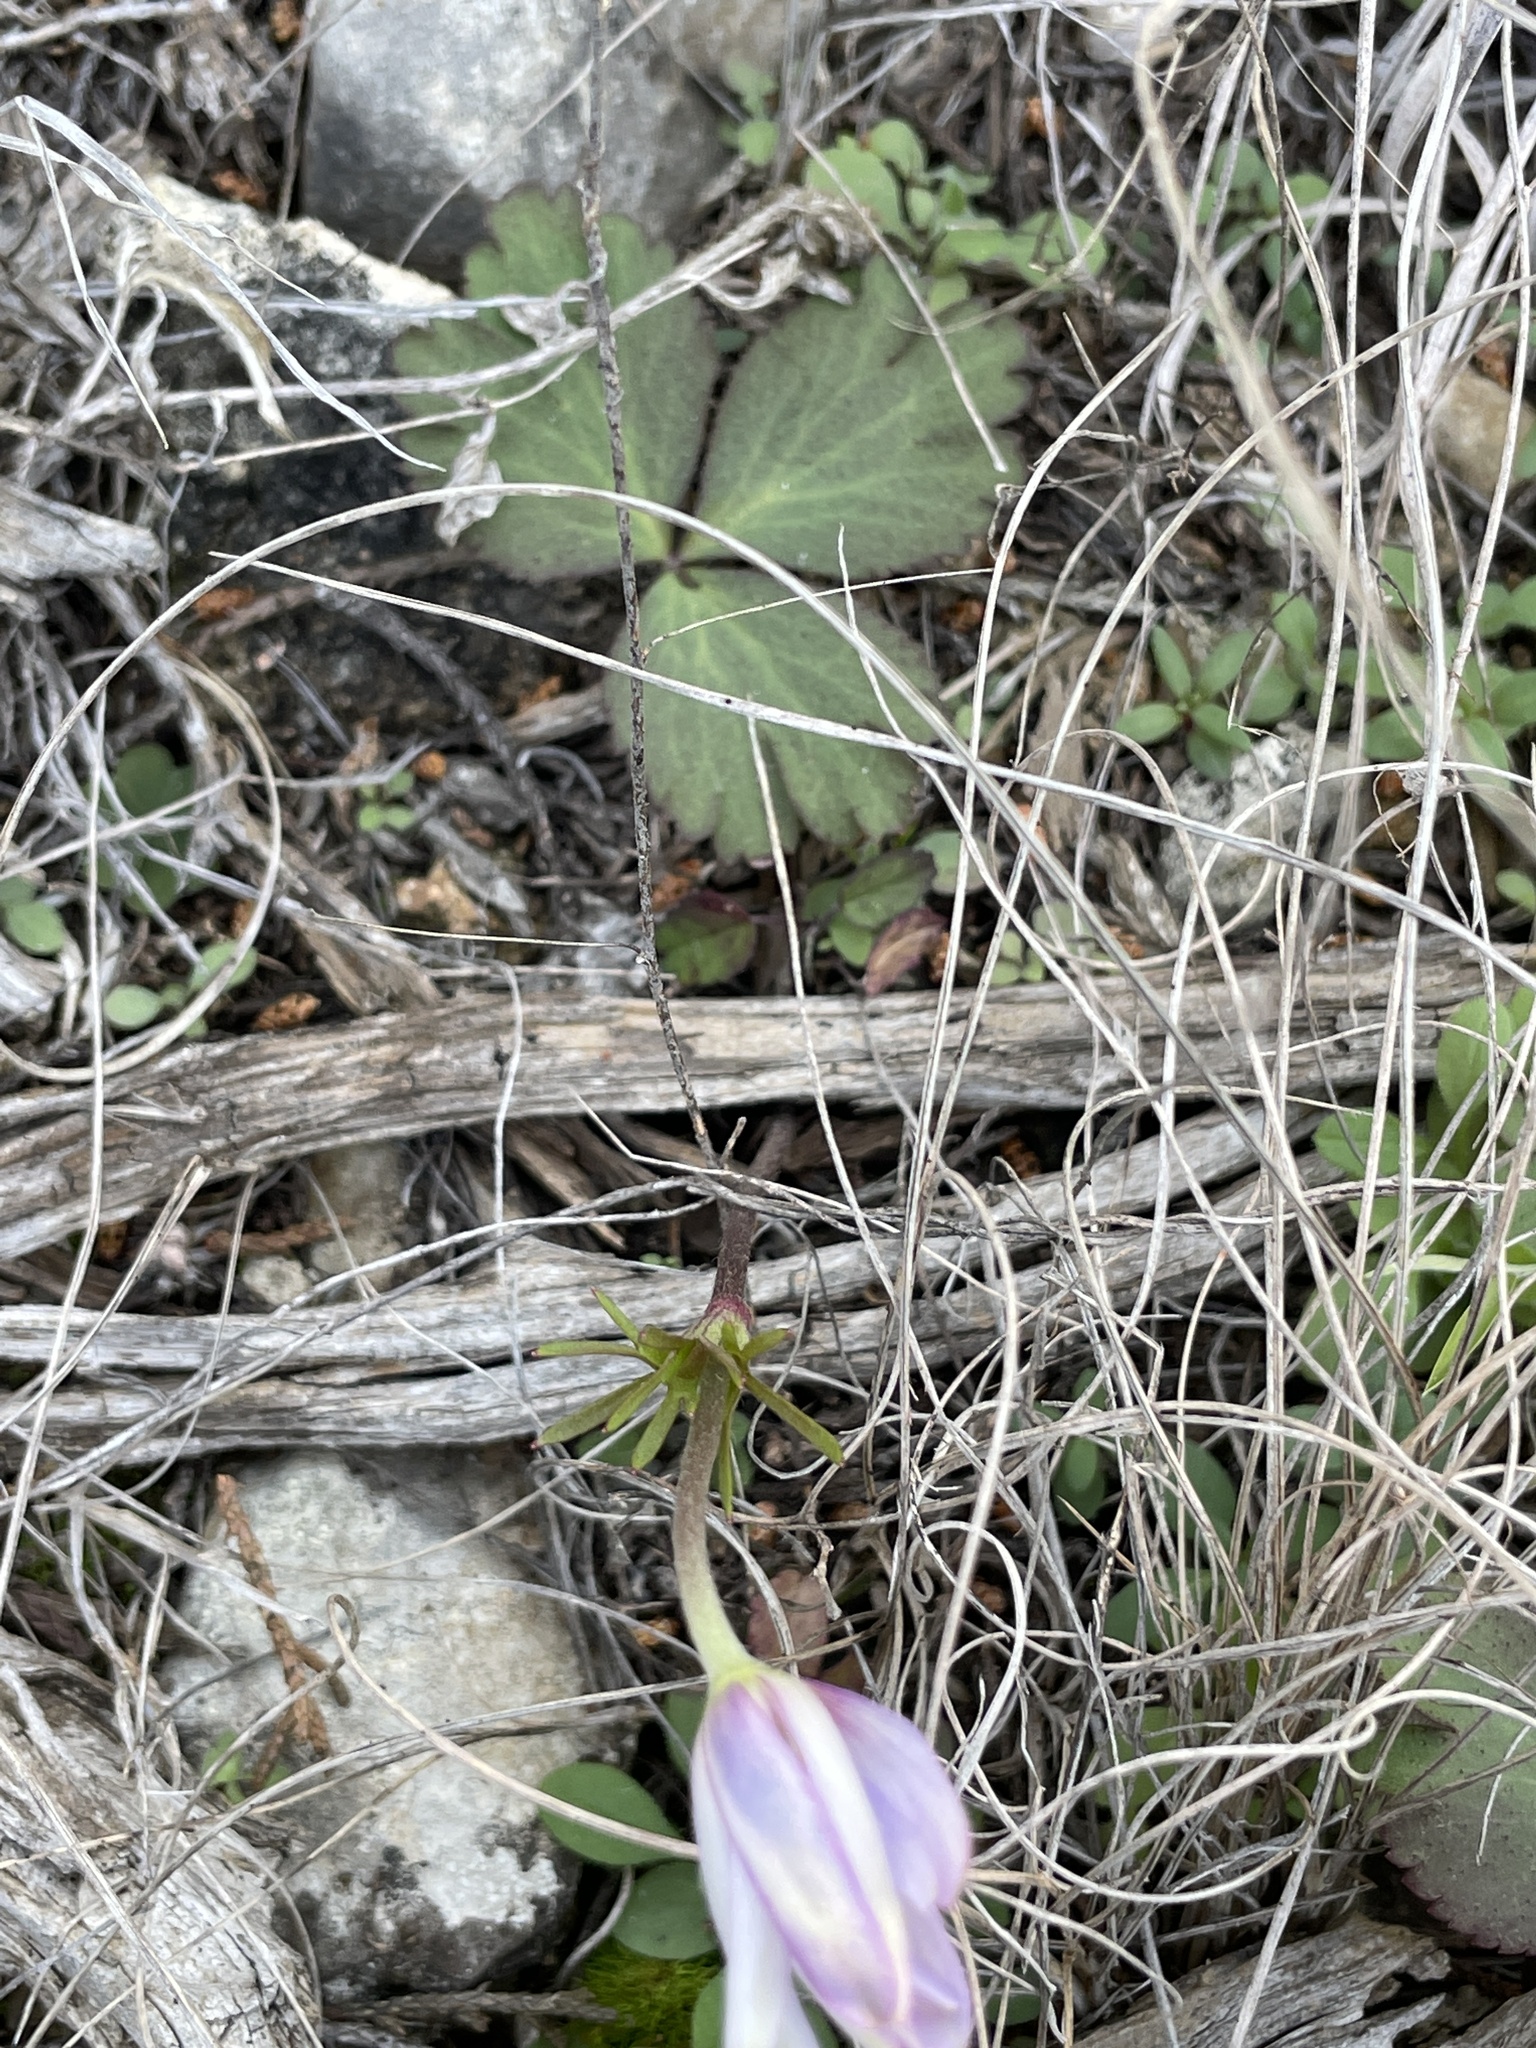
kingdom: Plantae
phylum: Tracheophyta
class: Magnoliopsida
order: Ranunculales
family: Ranunculaceae
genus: Anemone
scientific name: Anemone berlandieri
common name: Ten-petal anemone
